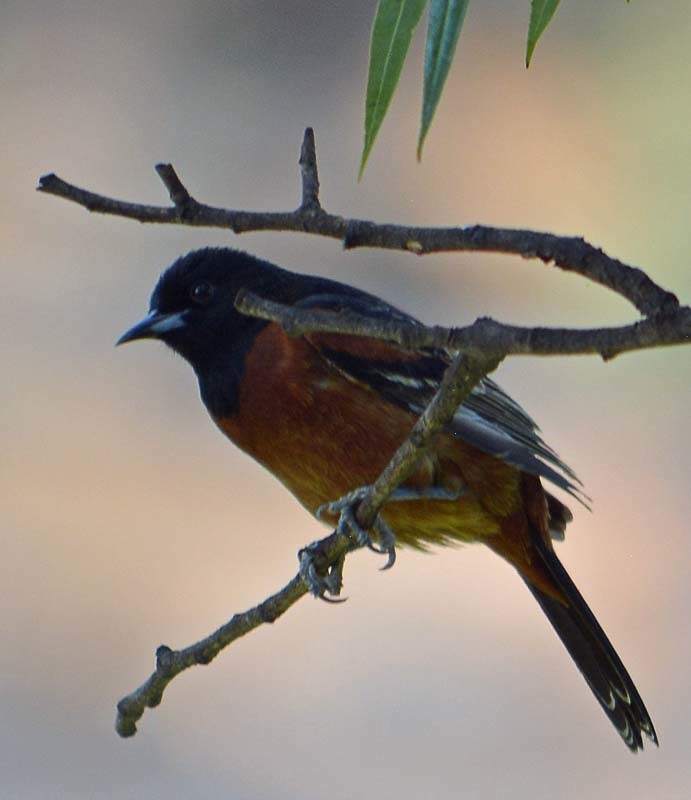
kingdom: Animalia
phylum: Chordata
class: Aves
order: Passeriformes
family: Icteridae
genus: Icterus
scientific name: Icterus spurius
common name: Orchard oriole
